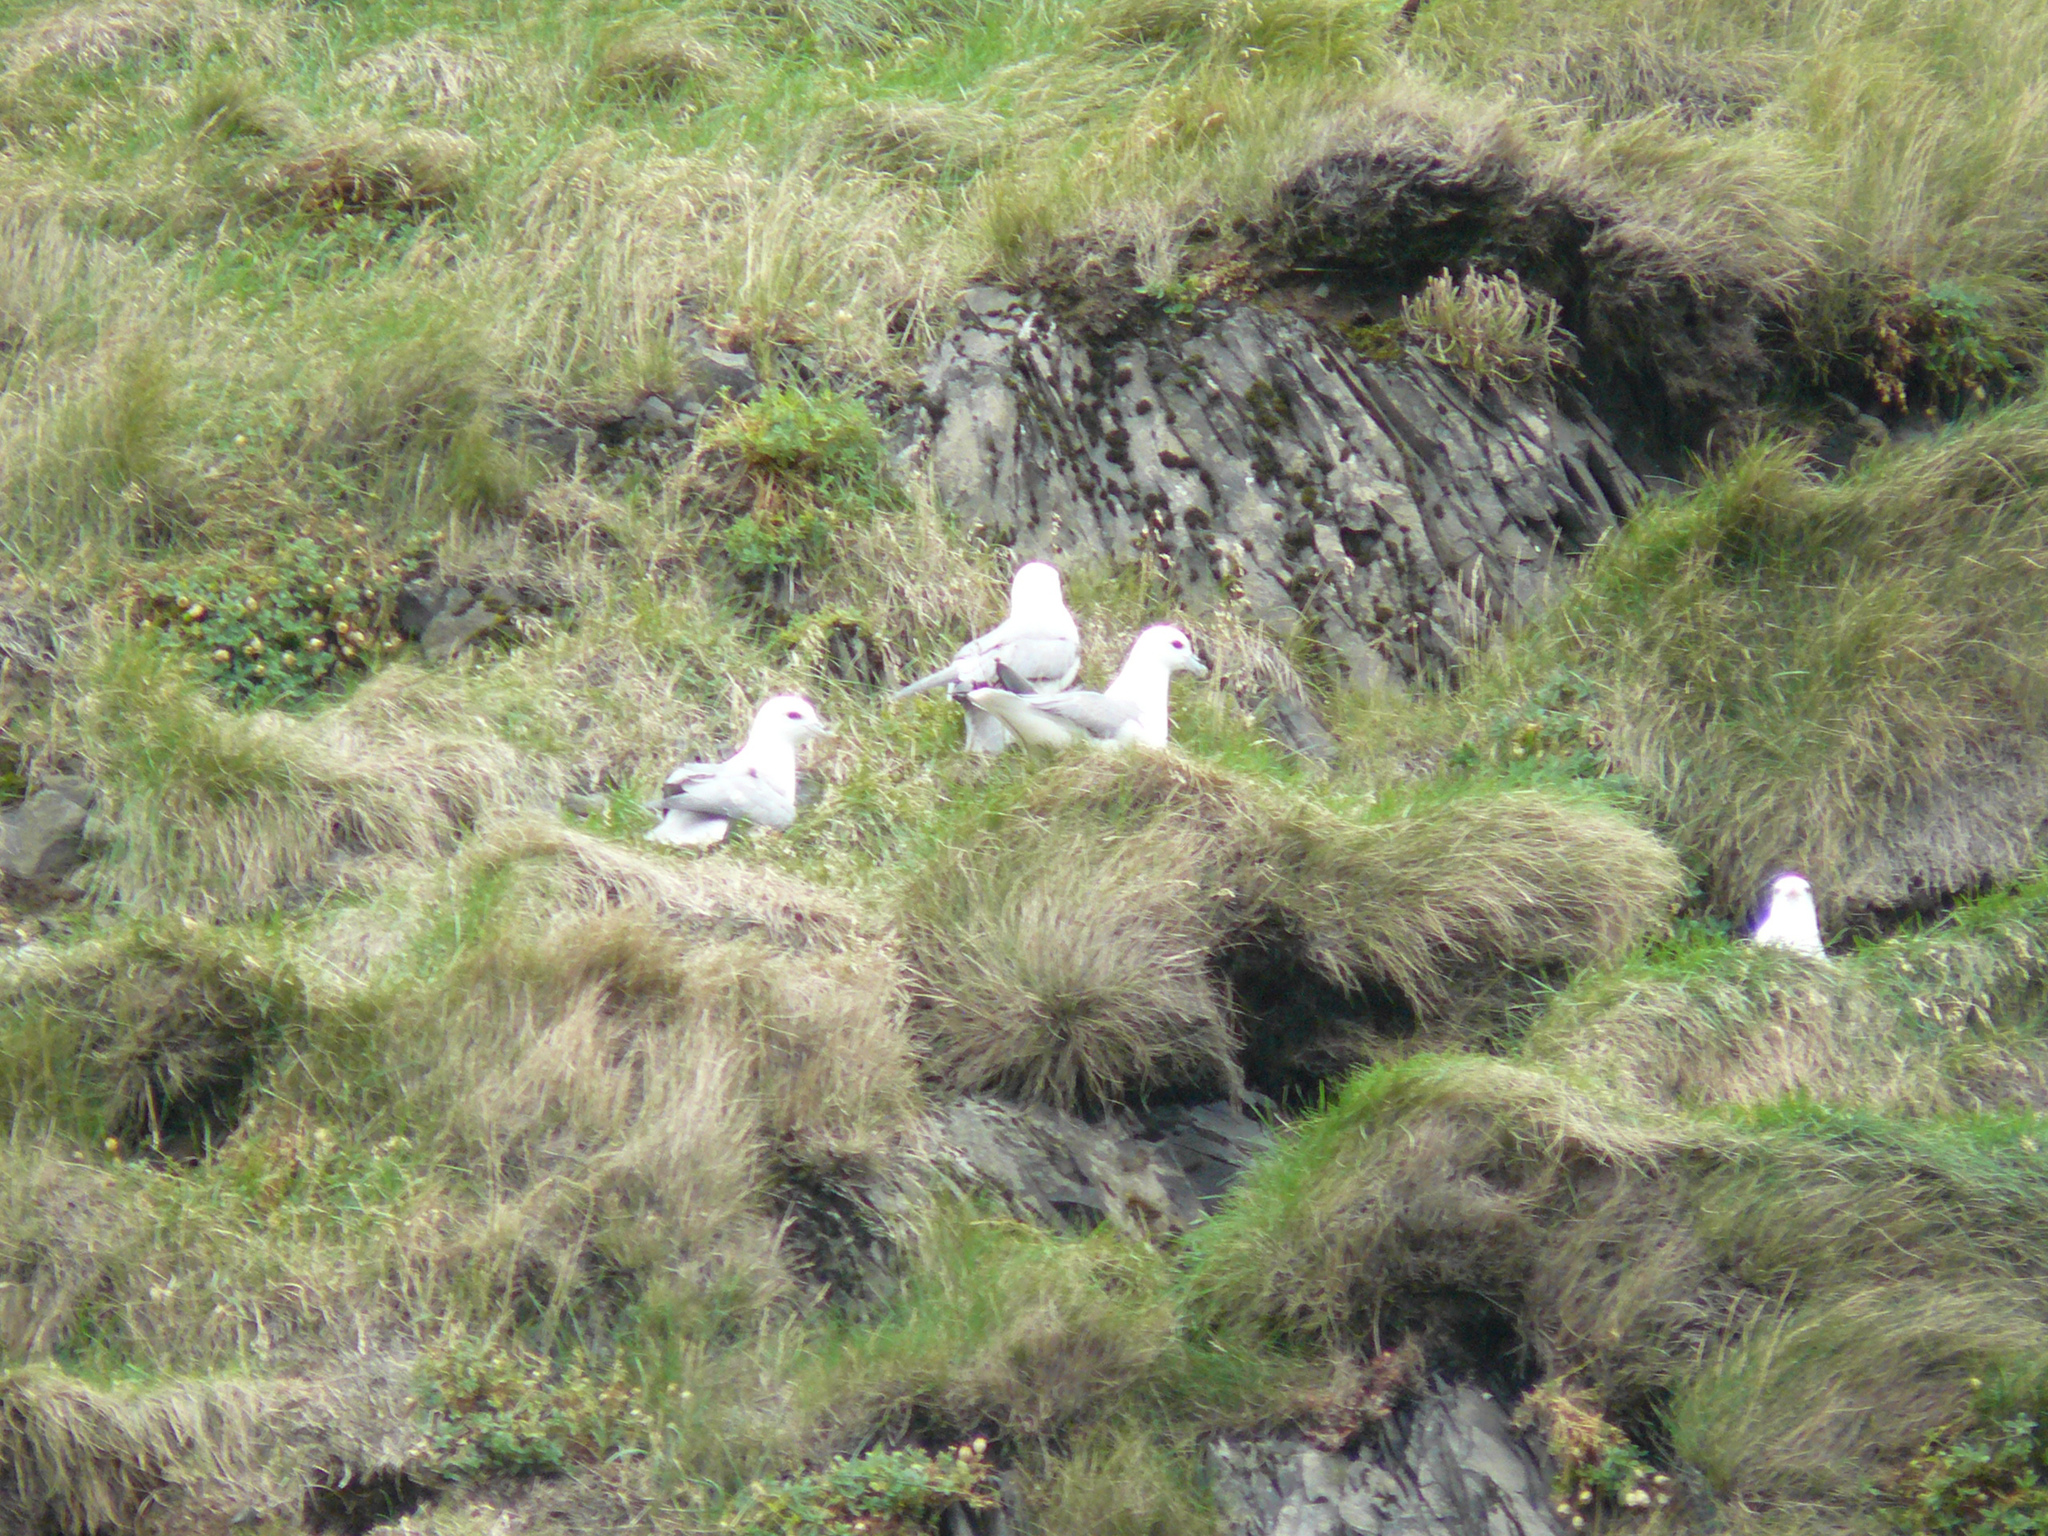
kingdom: Animalia
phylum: Chordata
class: Aves
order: Procellariiformes
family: Procellariidae
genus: Fulmarus
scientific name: Fulmarus glacialis
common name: Northern fulmar
